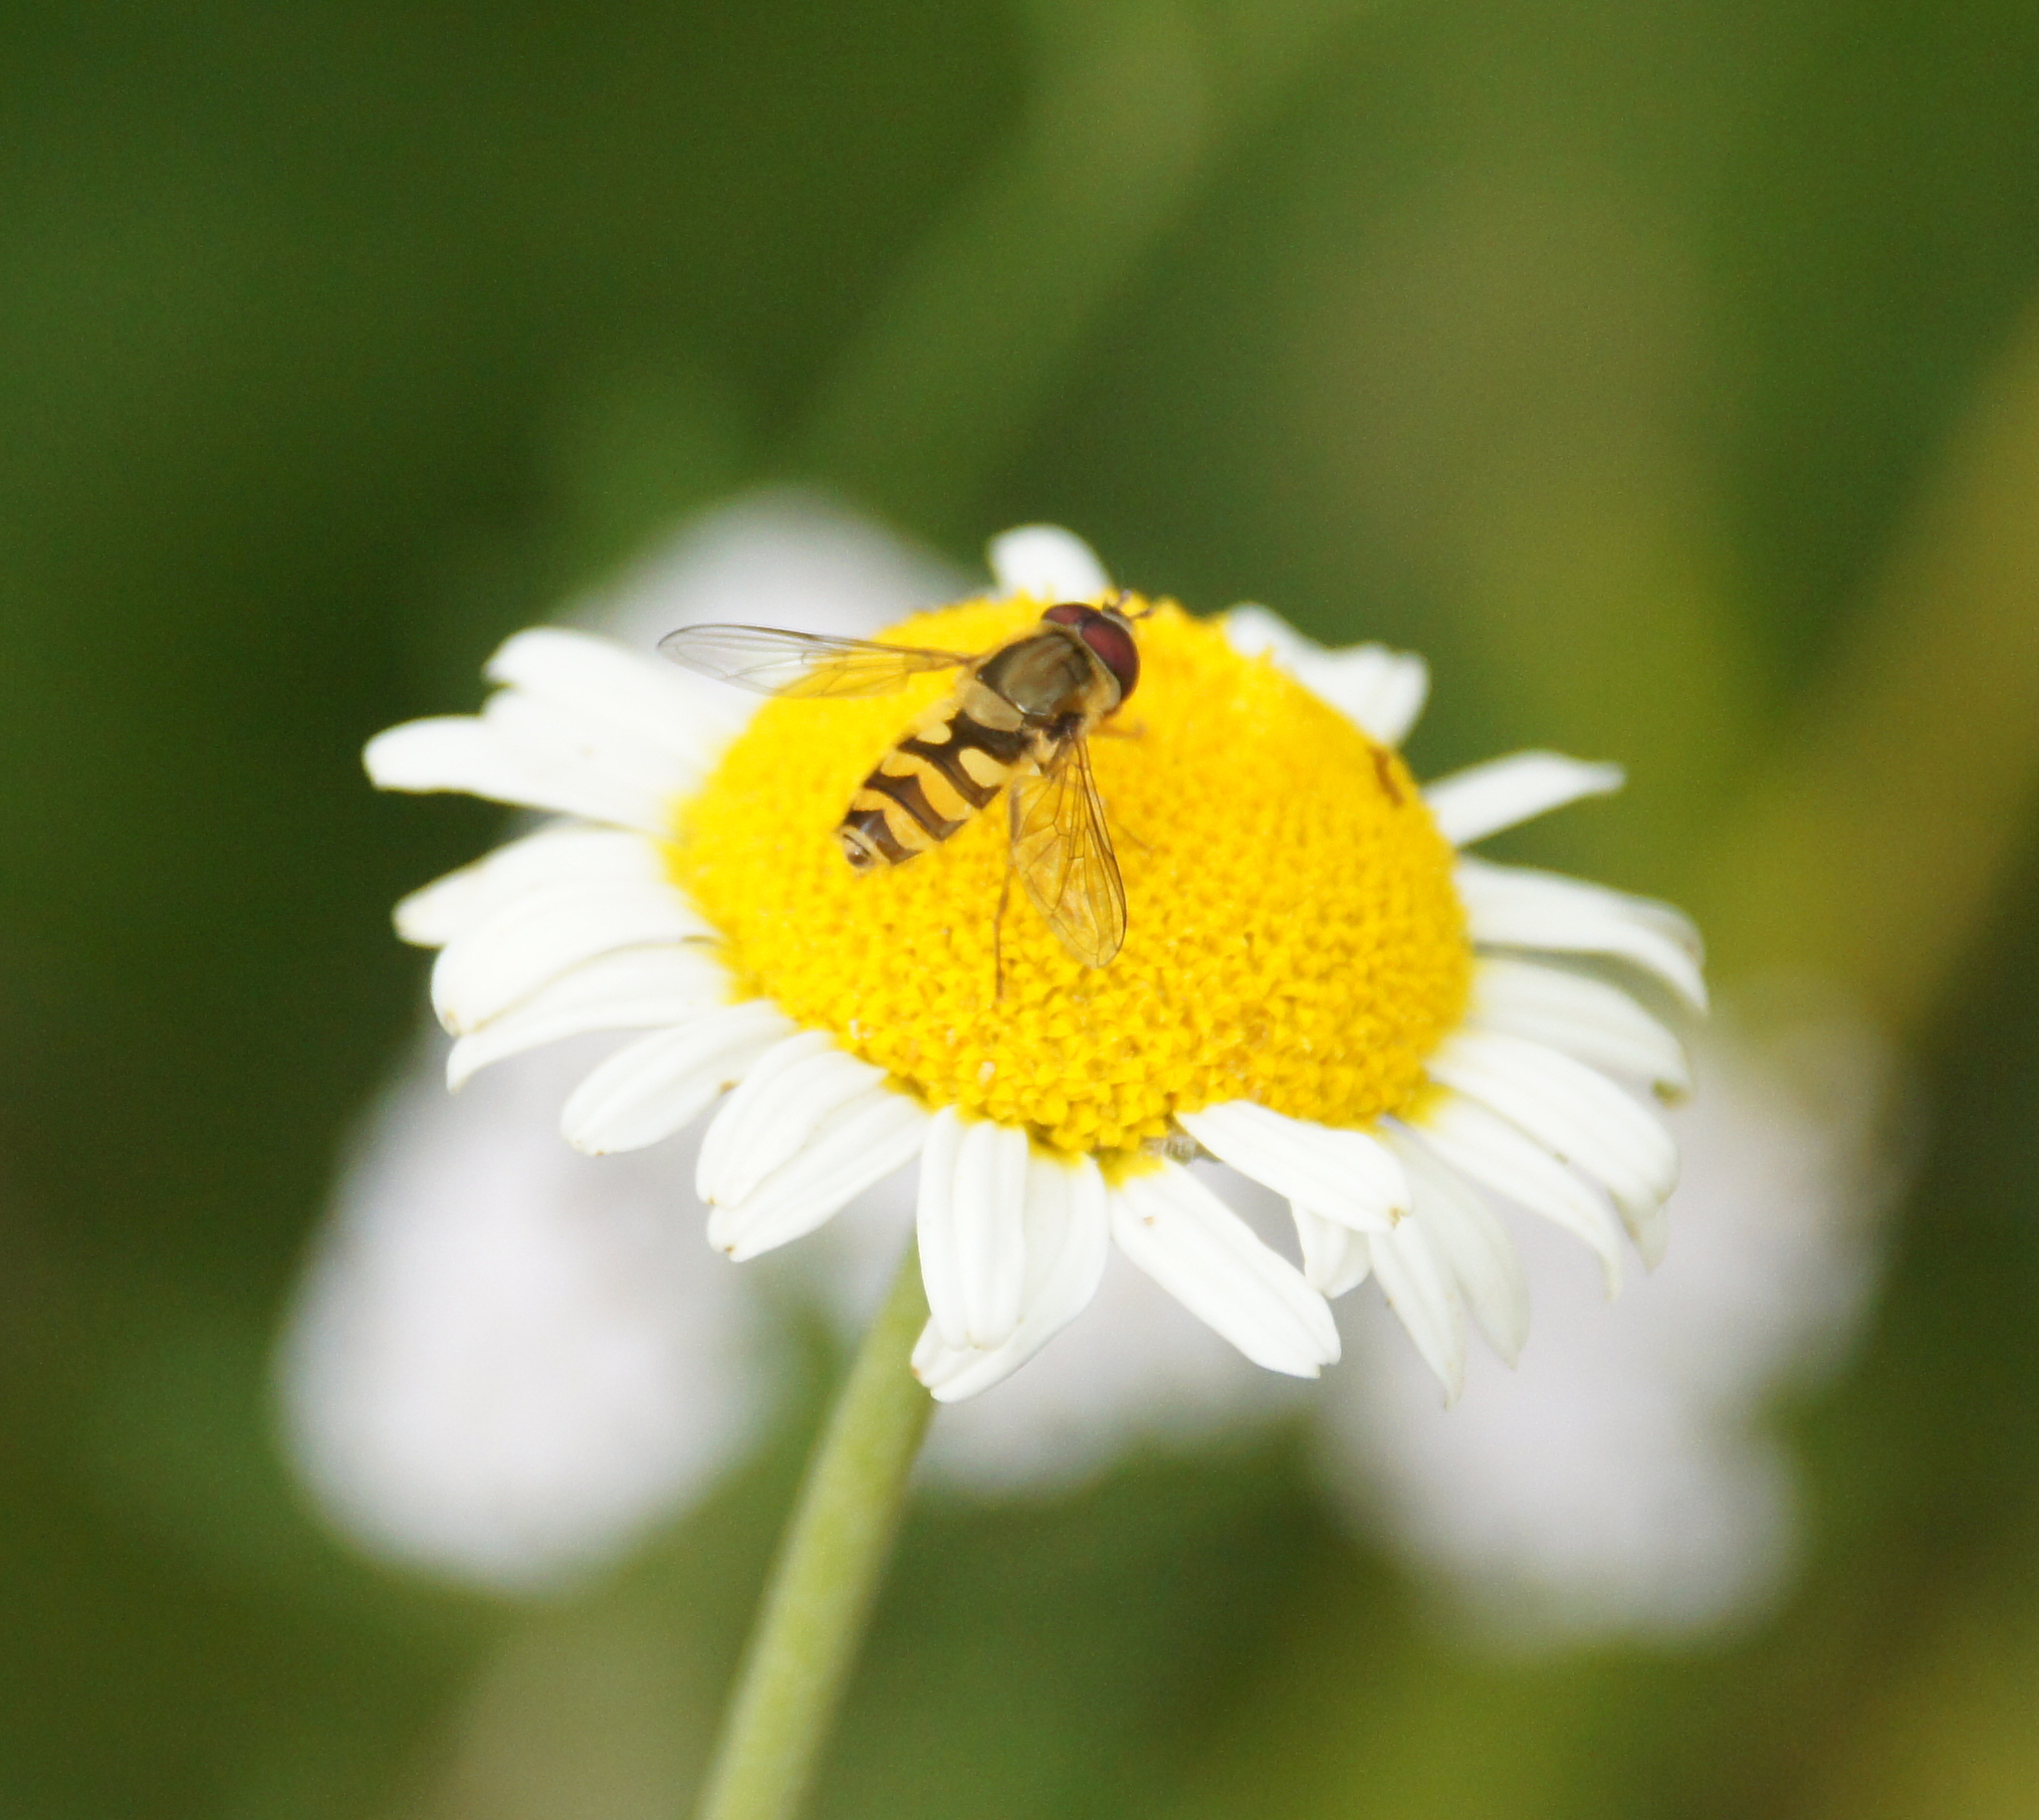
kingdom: Animalia
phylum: Arthropoda
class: Insecta
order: Diptera
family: Syrphidae
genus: Syrphus
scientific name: Syrphus ribesii
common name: Common flower fly
